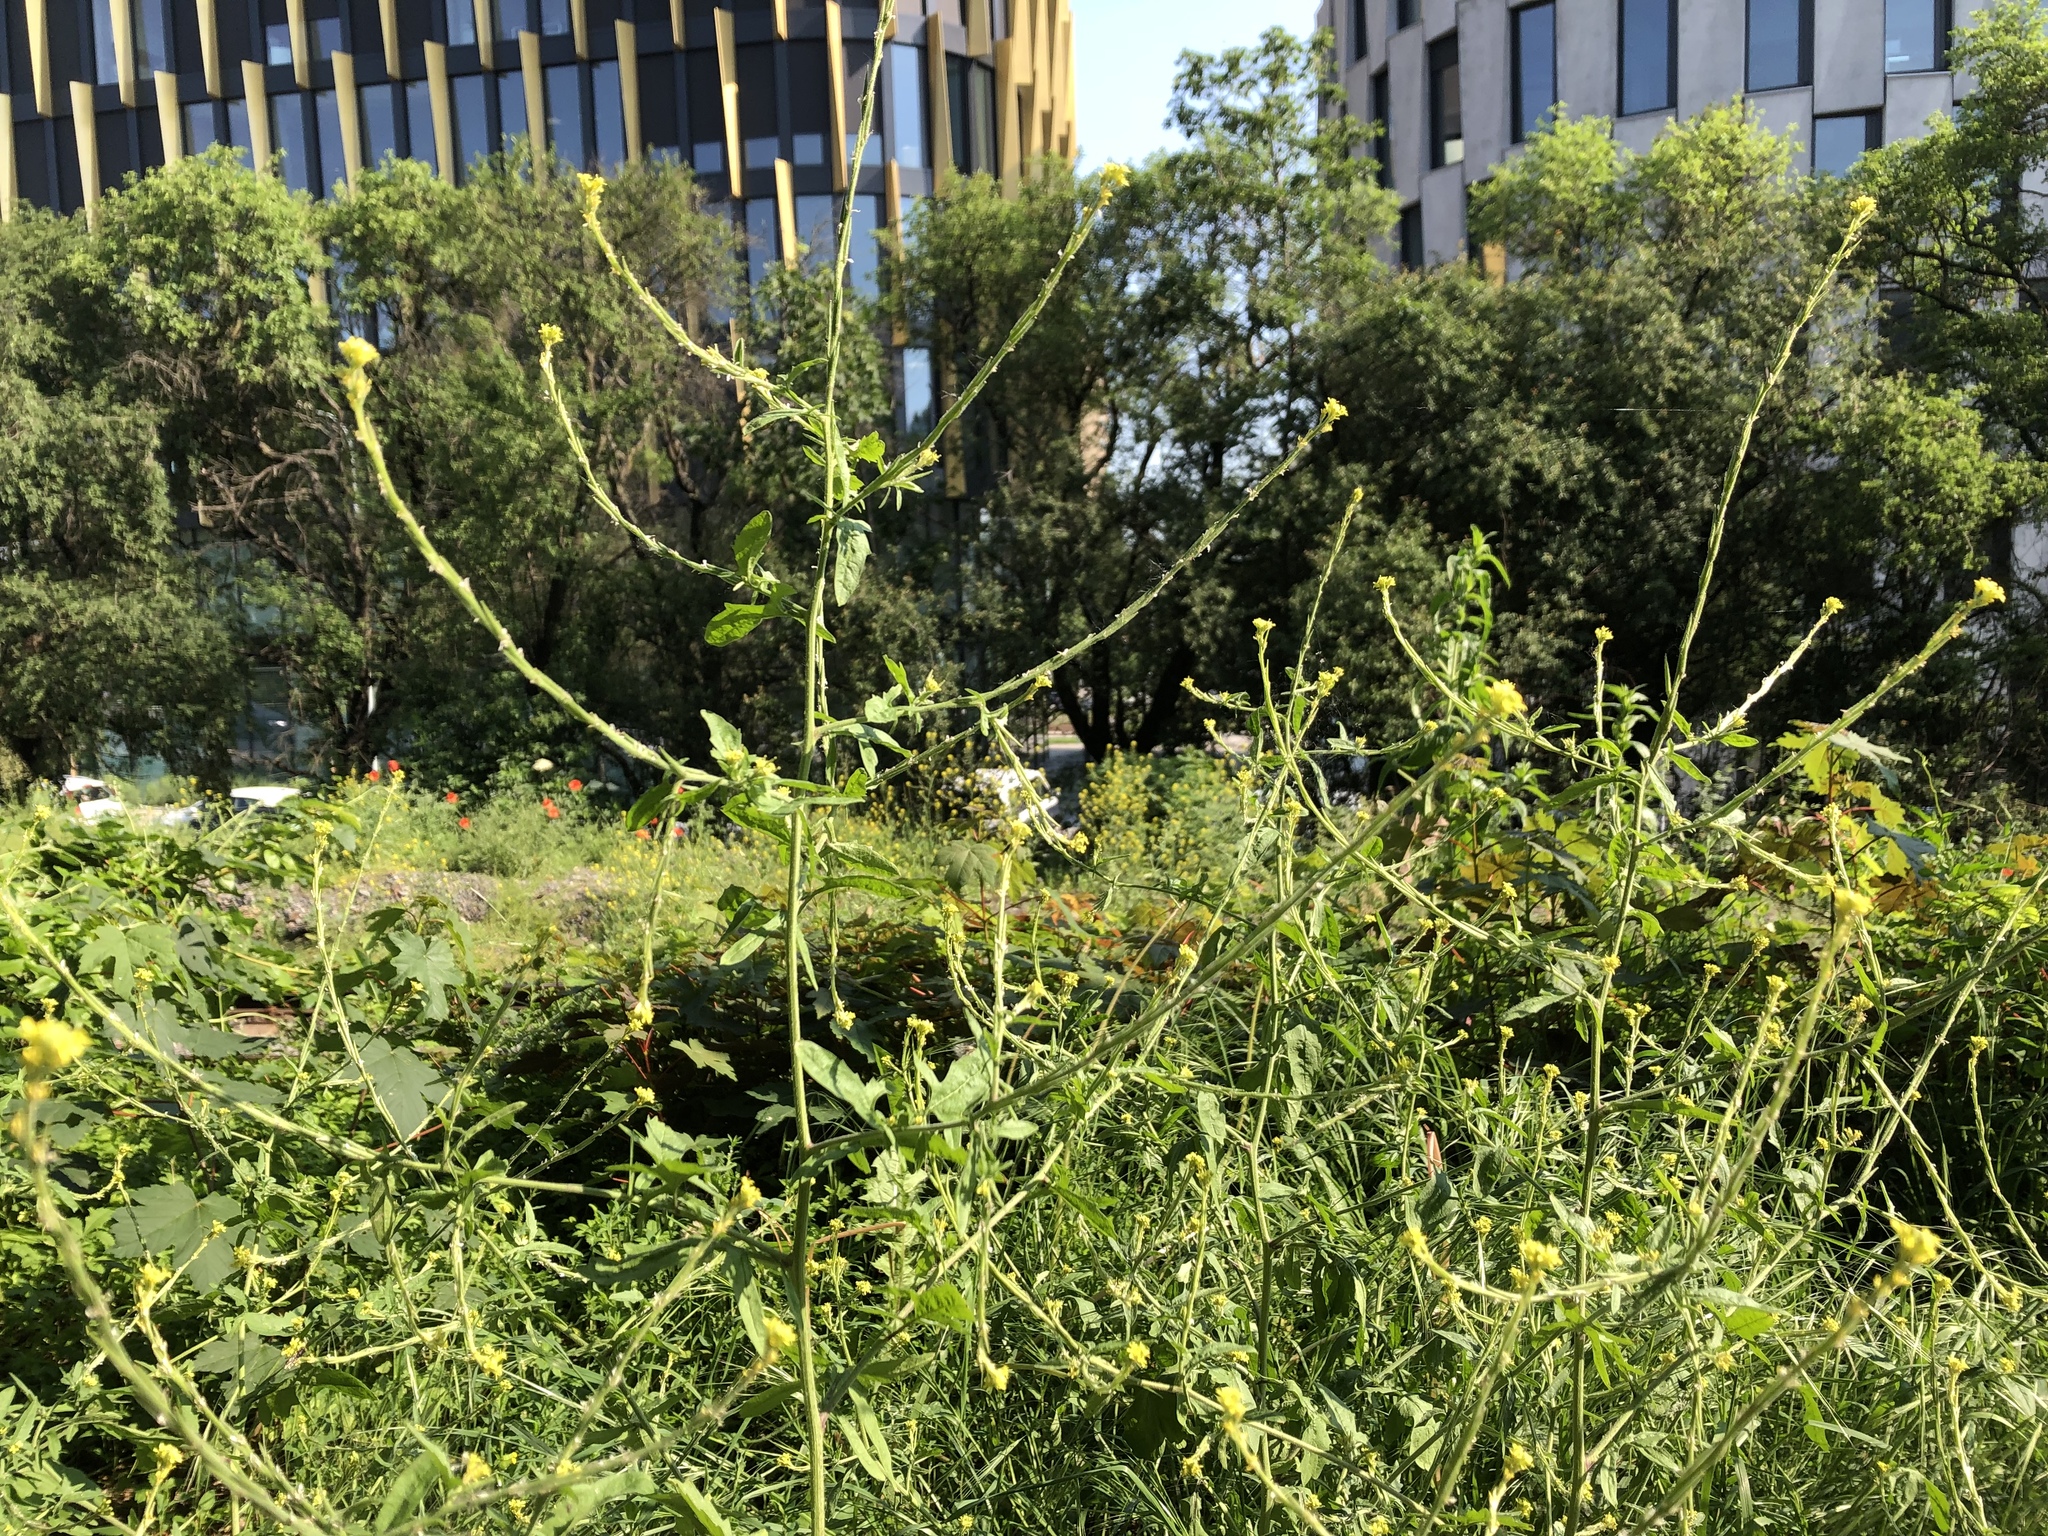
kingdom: Plantae
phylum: Tracheophyta
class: Magnoliopsida
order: Brassicales
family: Brassicaceae
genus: Sisymbrium
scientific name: Sisymbrium officinale
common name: Hedge mustard
